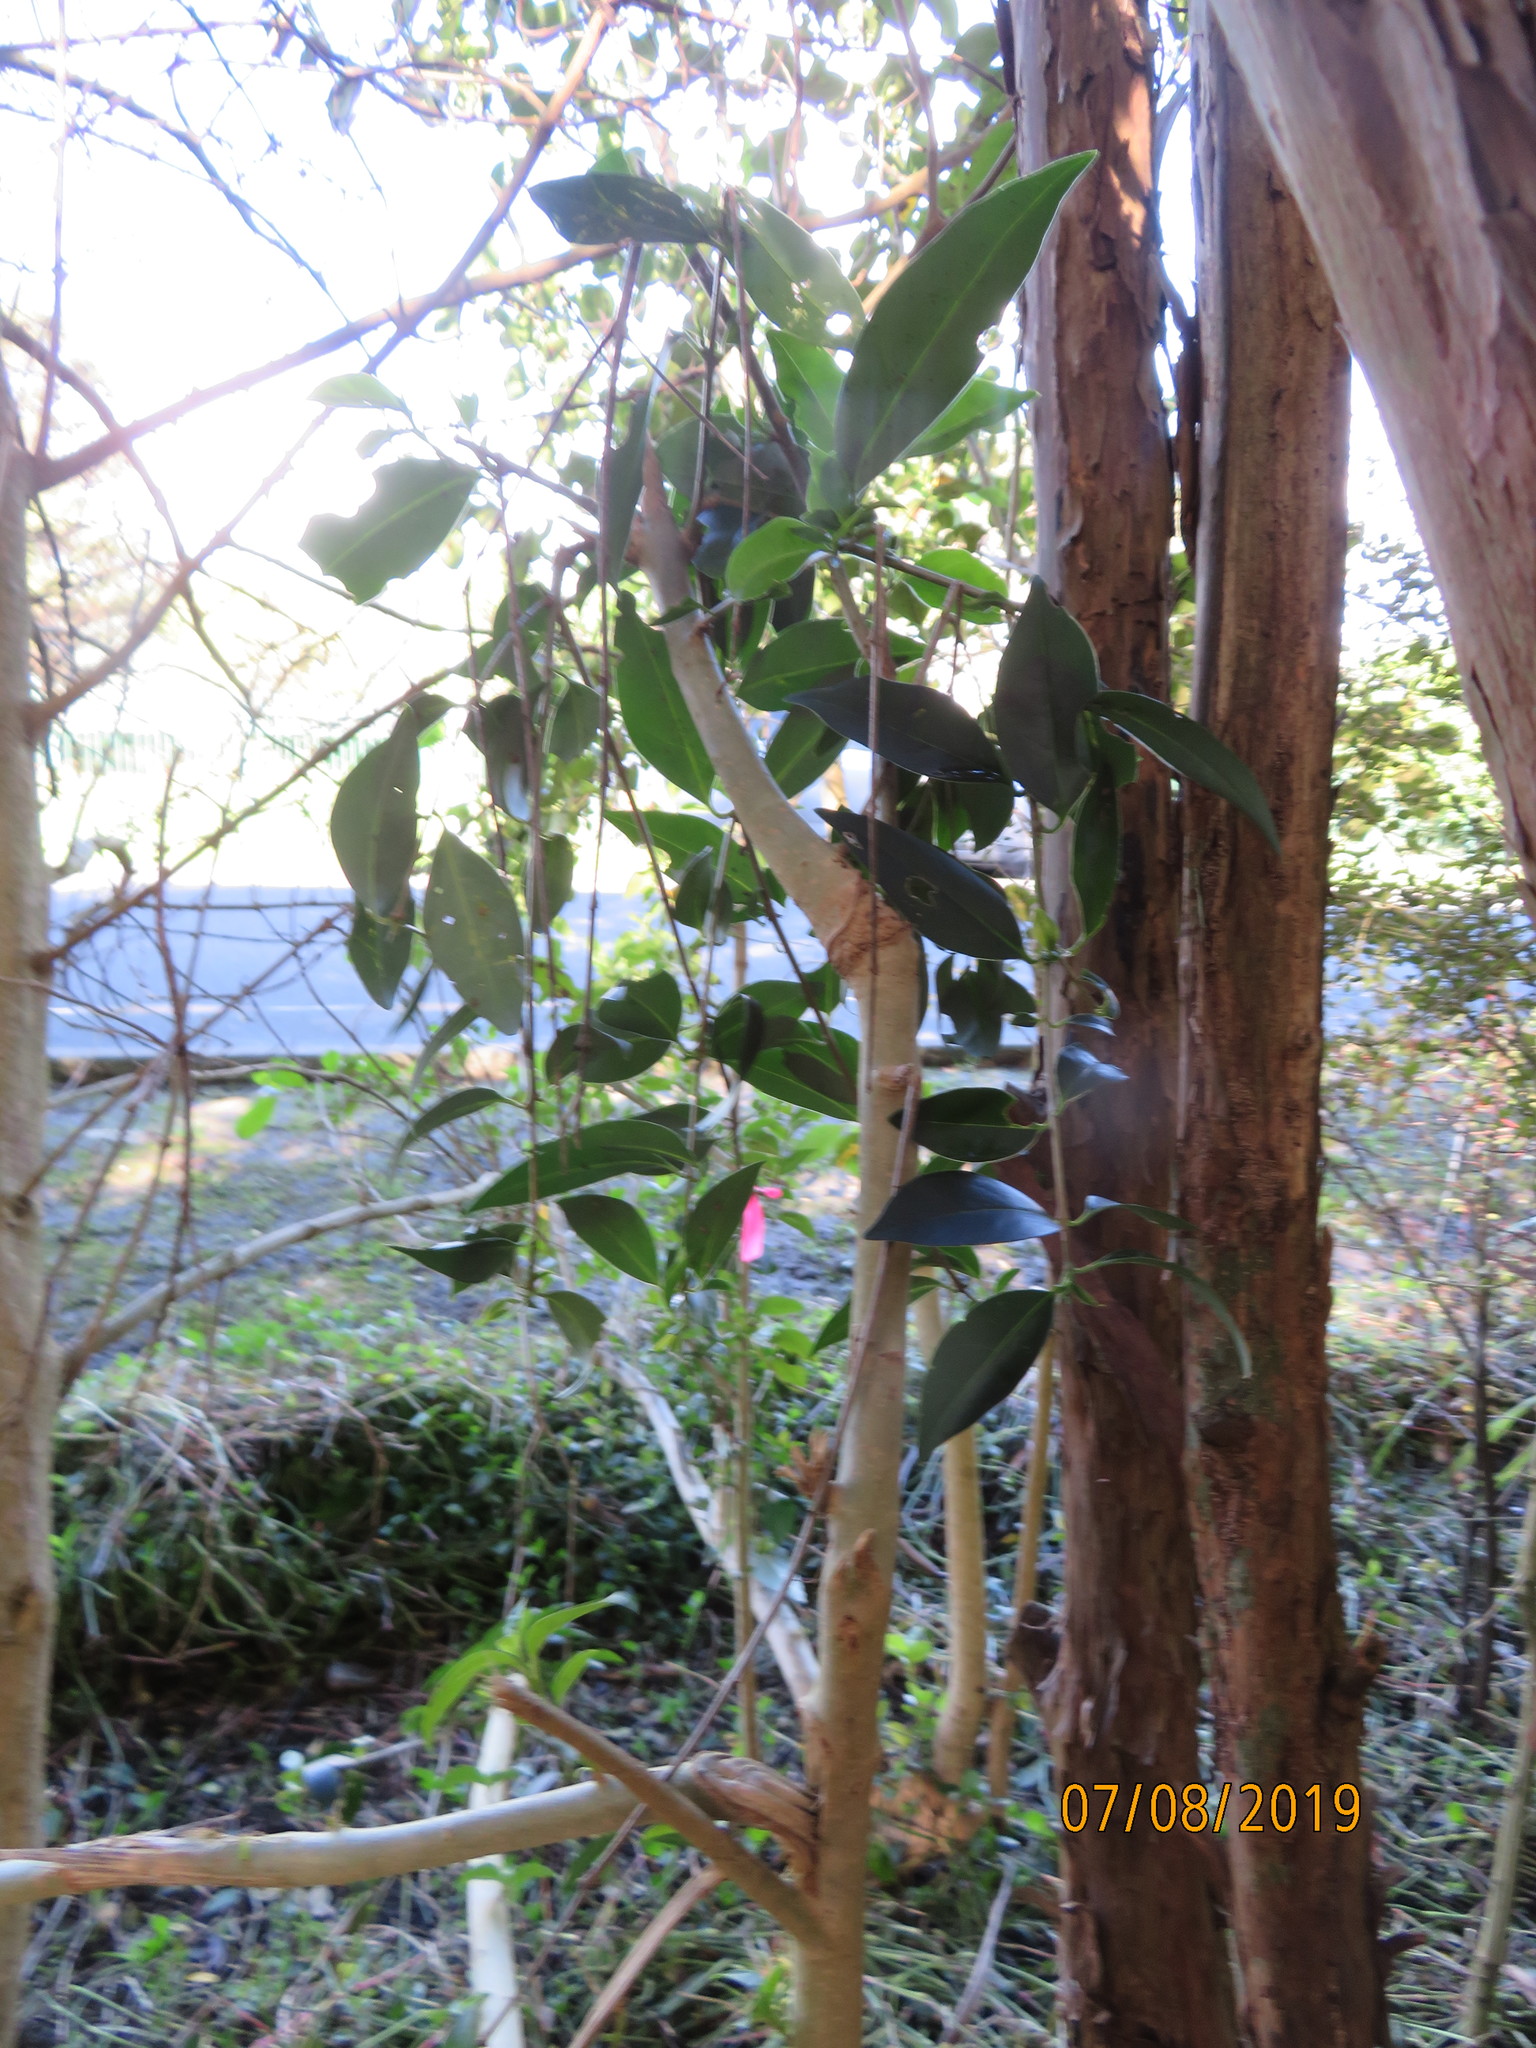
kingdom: Plantae
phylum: Tracheophyta
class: Magnoliopsida
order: Lamiales
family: Oleaceae
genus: Ligustrum
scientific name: Ligustrum lucidum
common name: Glossy privet
